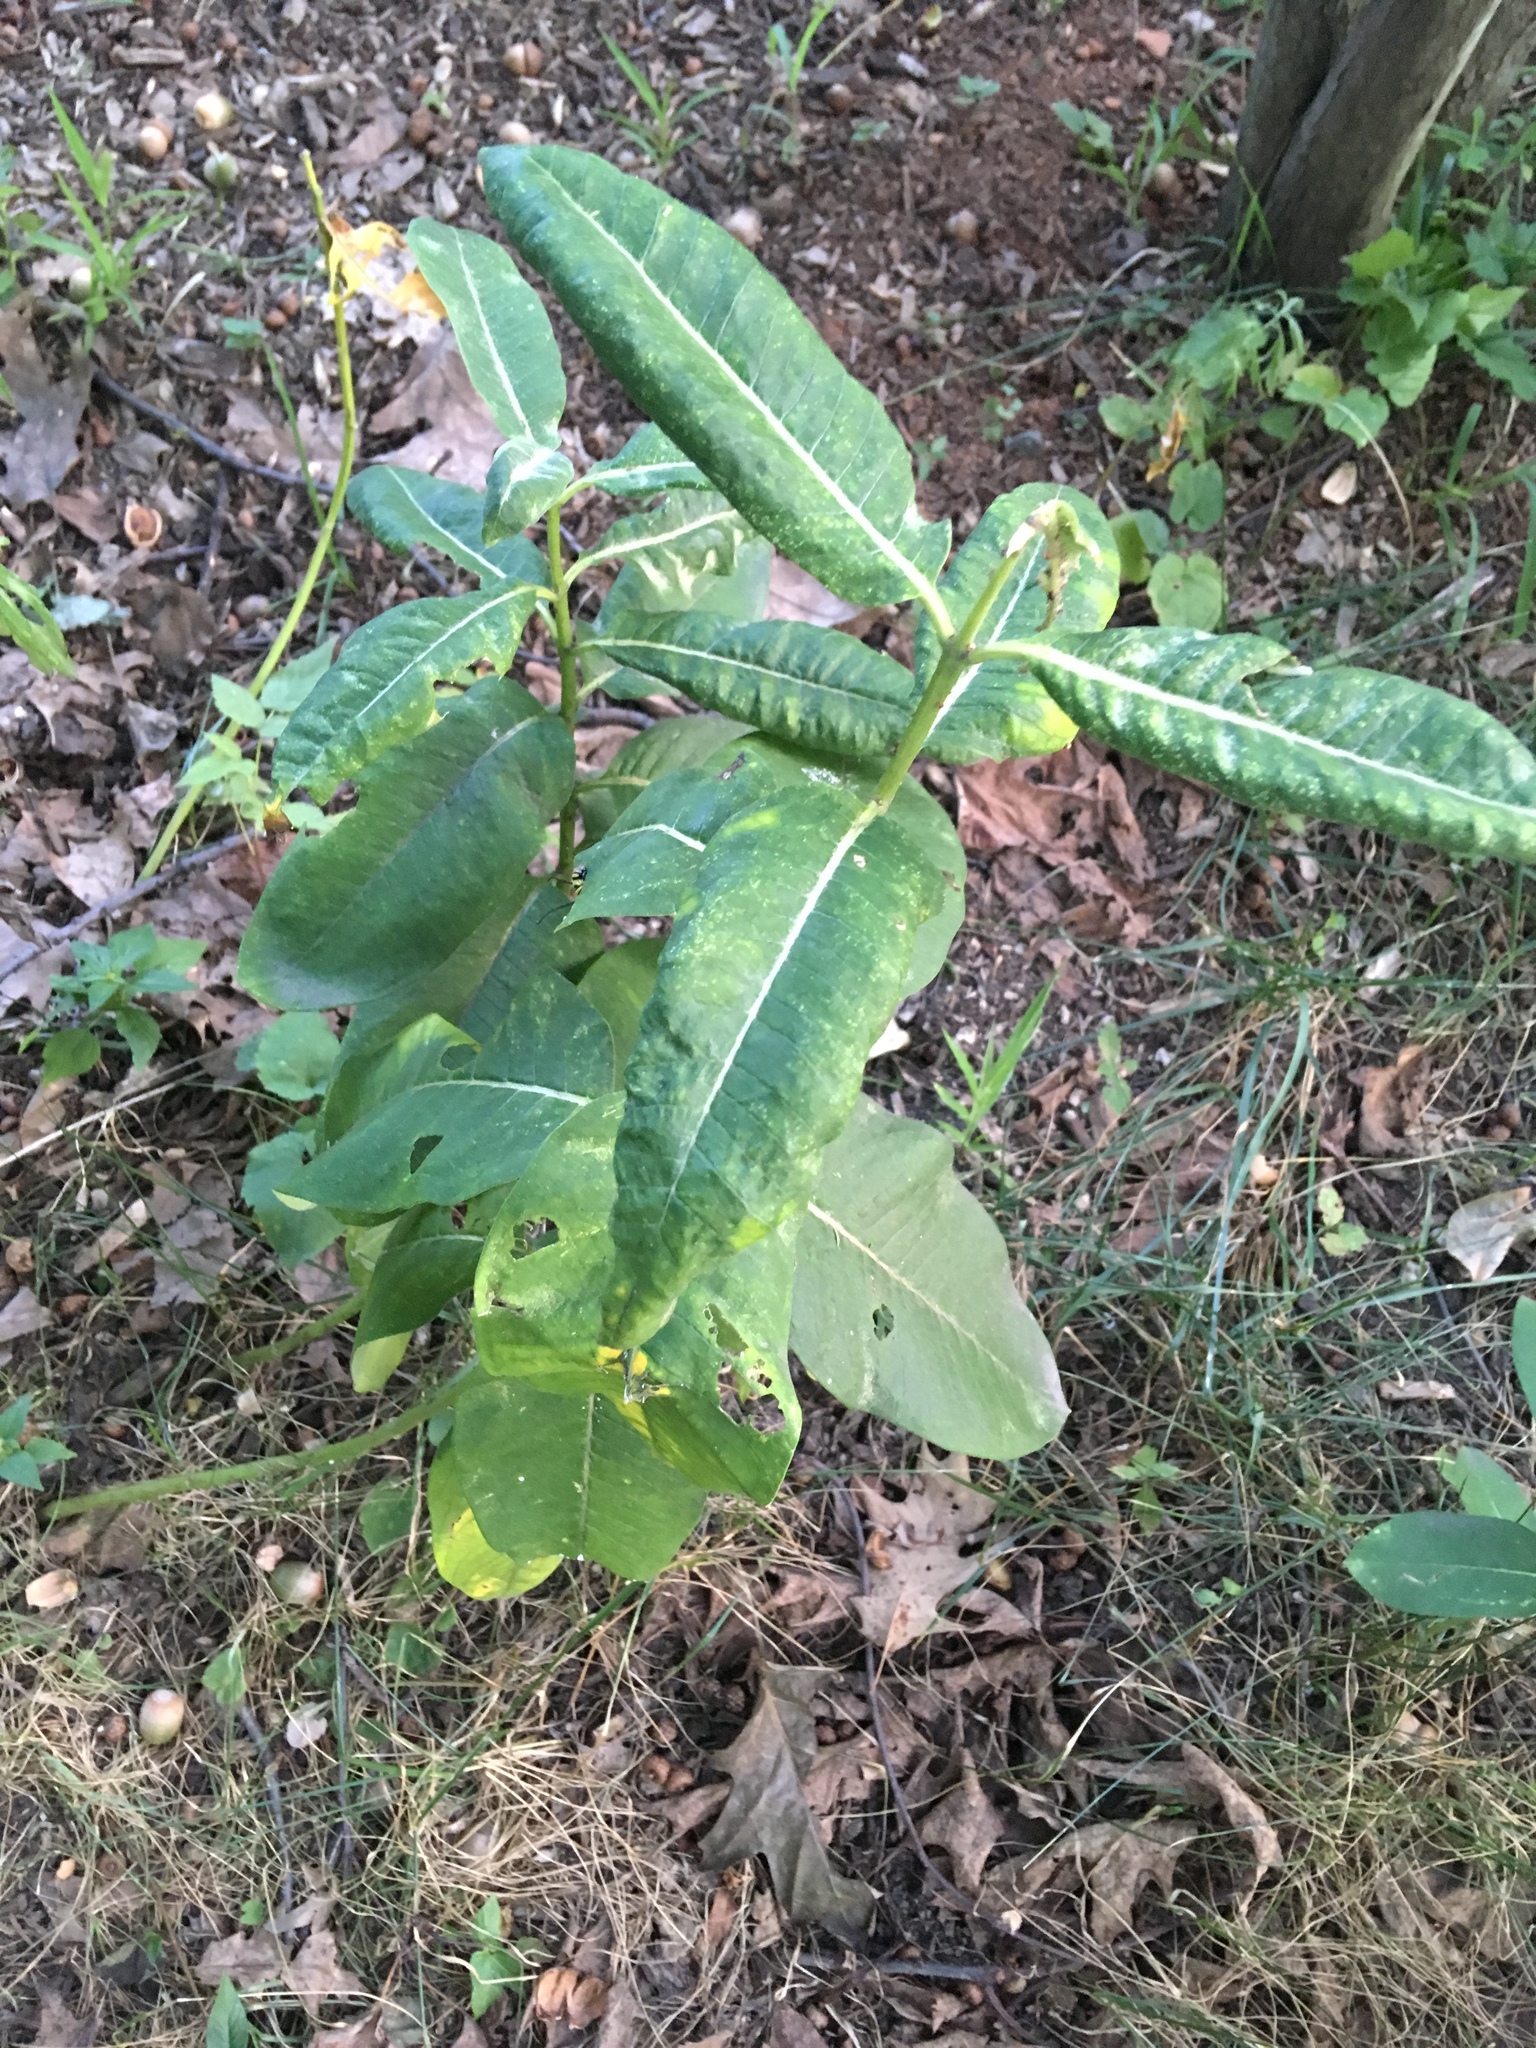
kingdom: Plantae
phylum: Tracheophyta
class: Magnoliopsida
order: Gentianales
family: Apocynaceae
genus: Asclepias
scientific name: Asclepias syriaca
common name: Common milkweed
